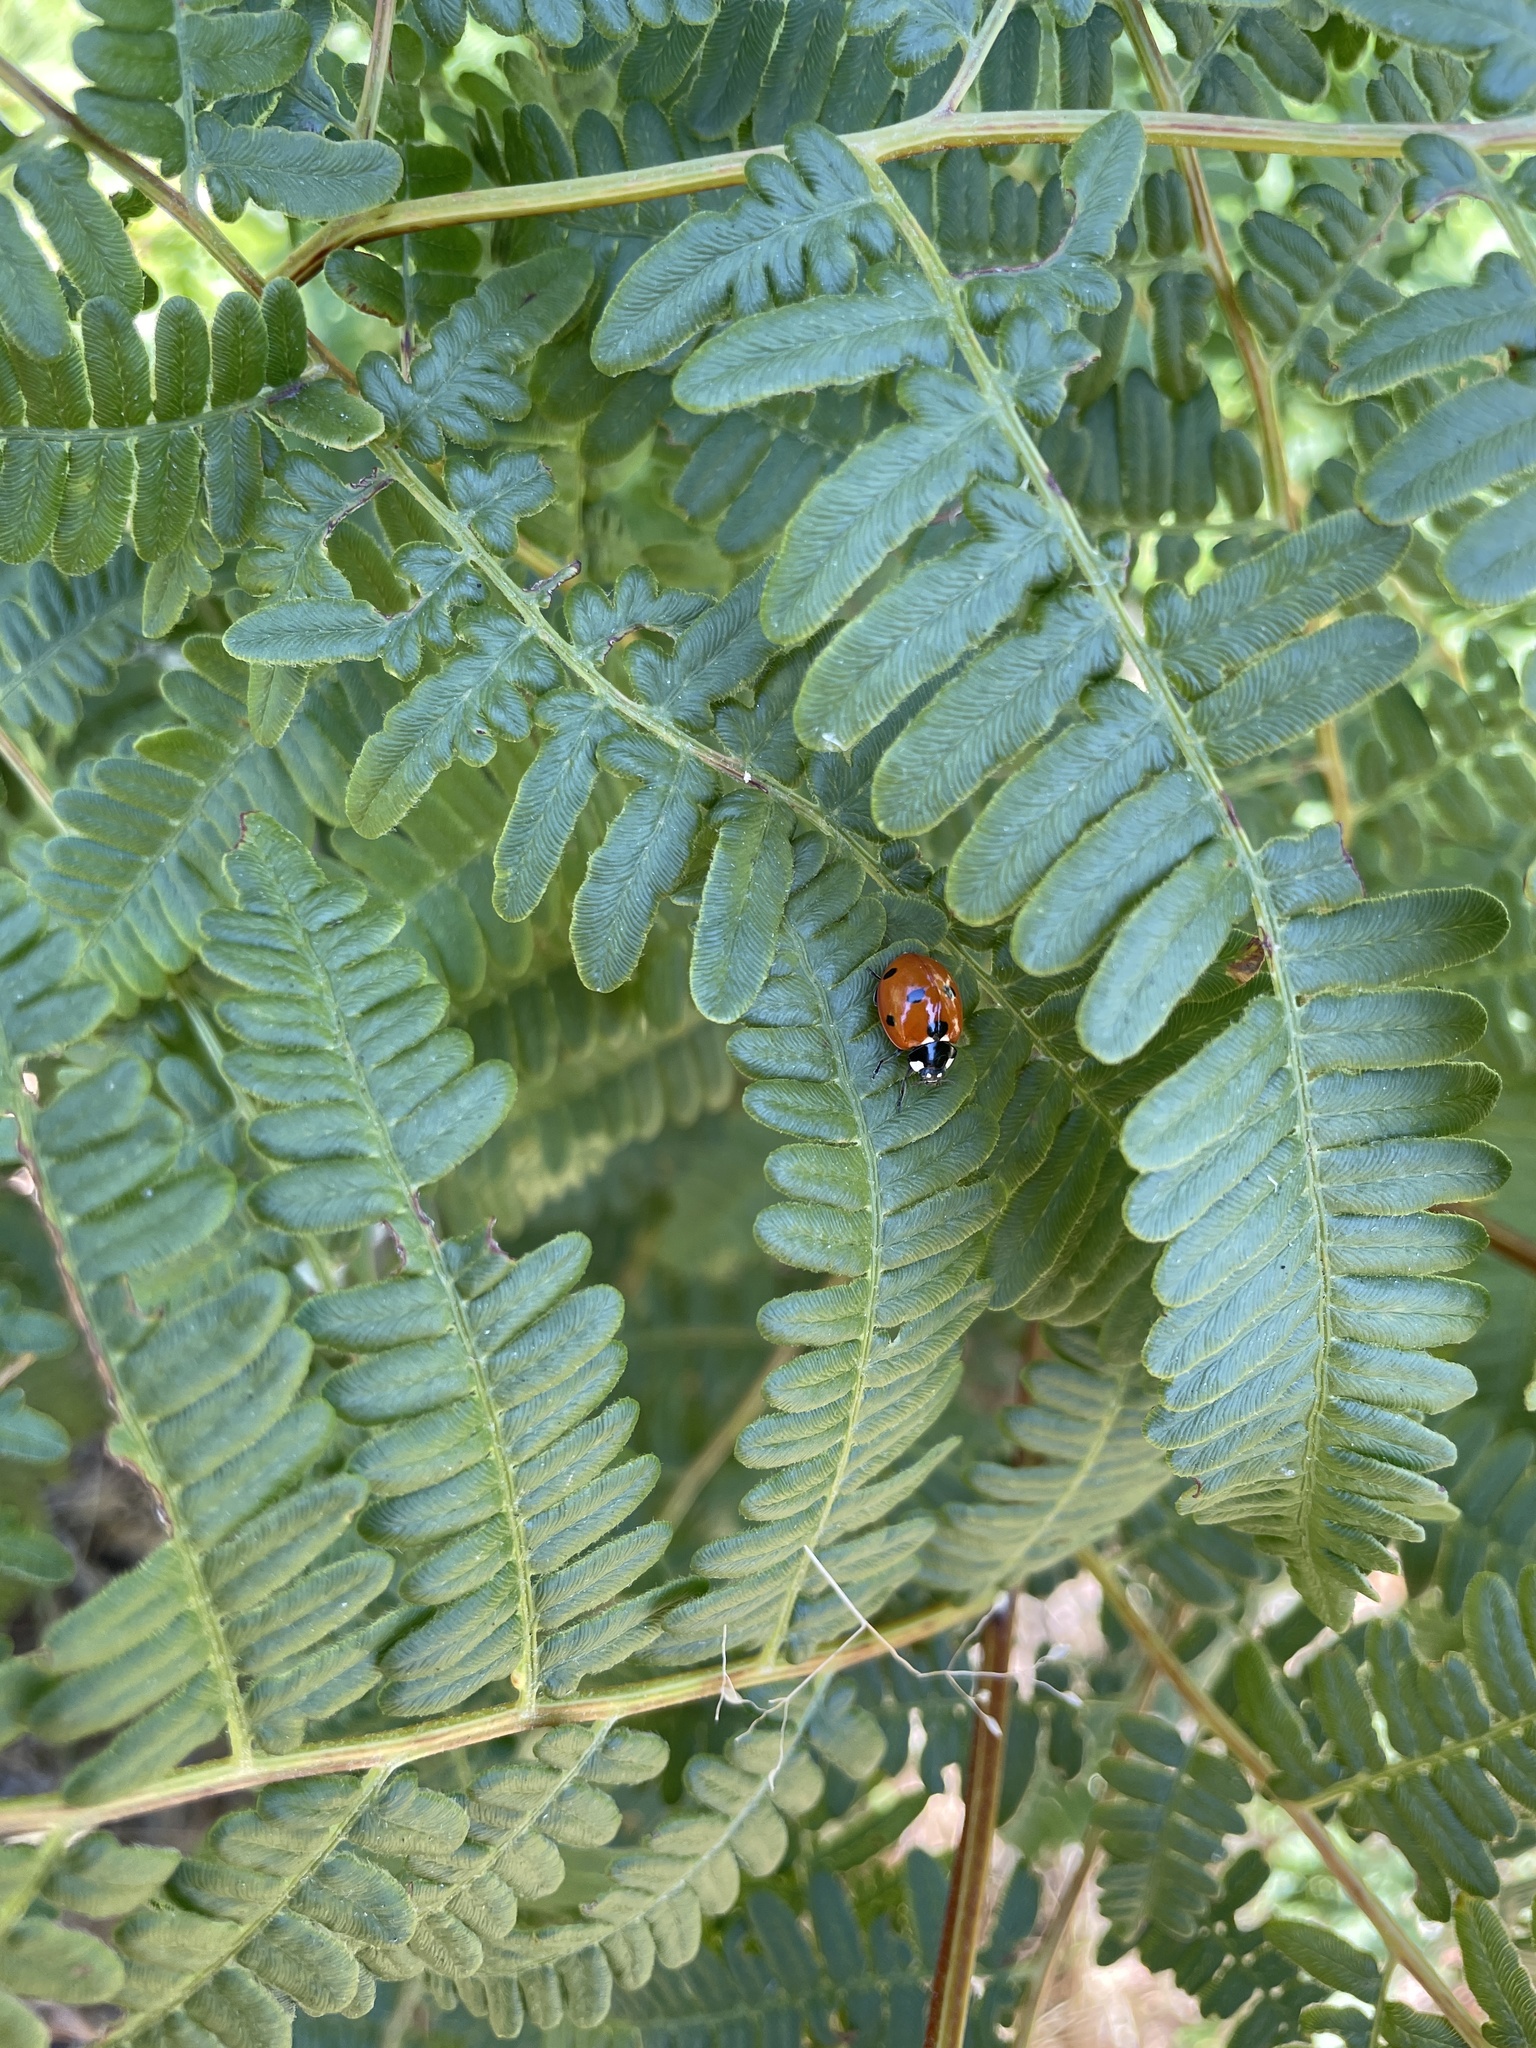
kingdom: Animalia
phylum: Arthropoda
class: Insecta
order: Coleoptera
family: Coccinellidae
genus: Coccinella
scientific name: Coccinella septempunctata
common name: Sevenspotted lady beetle
